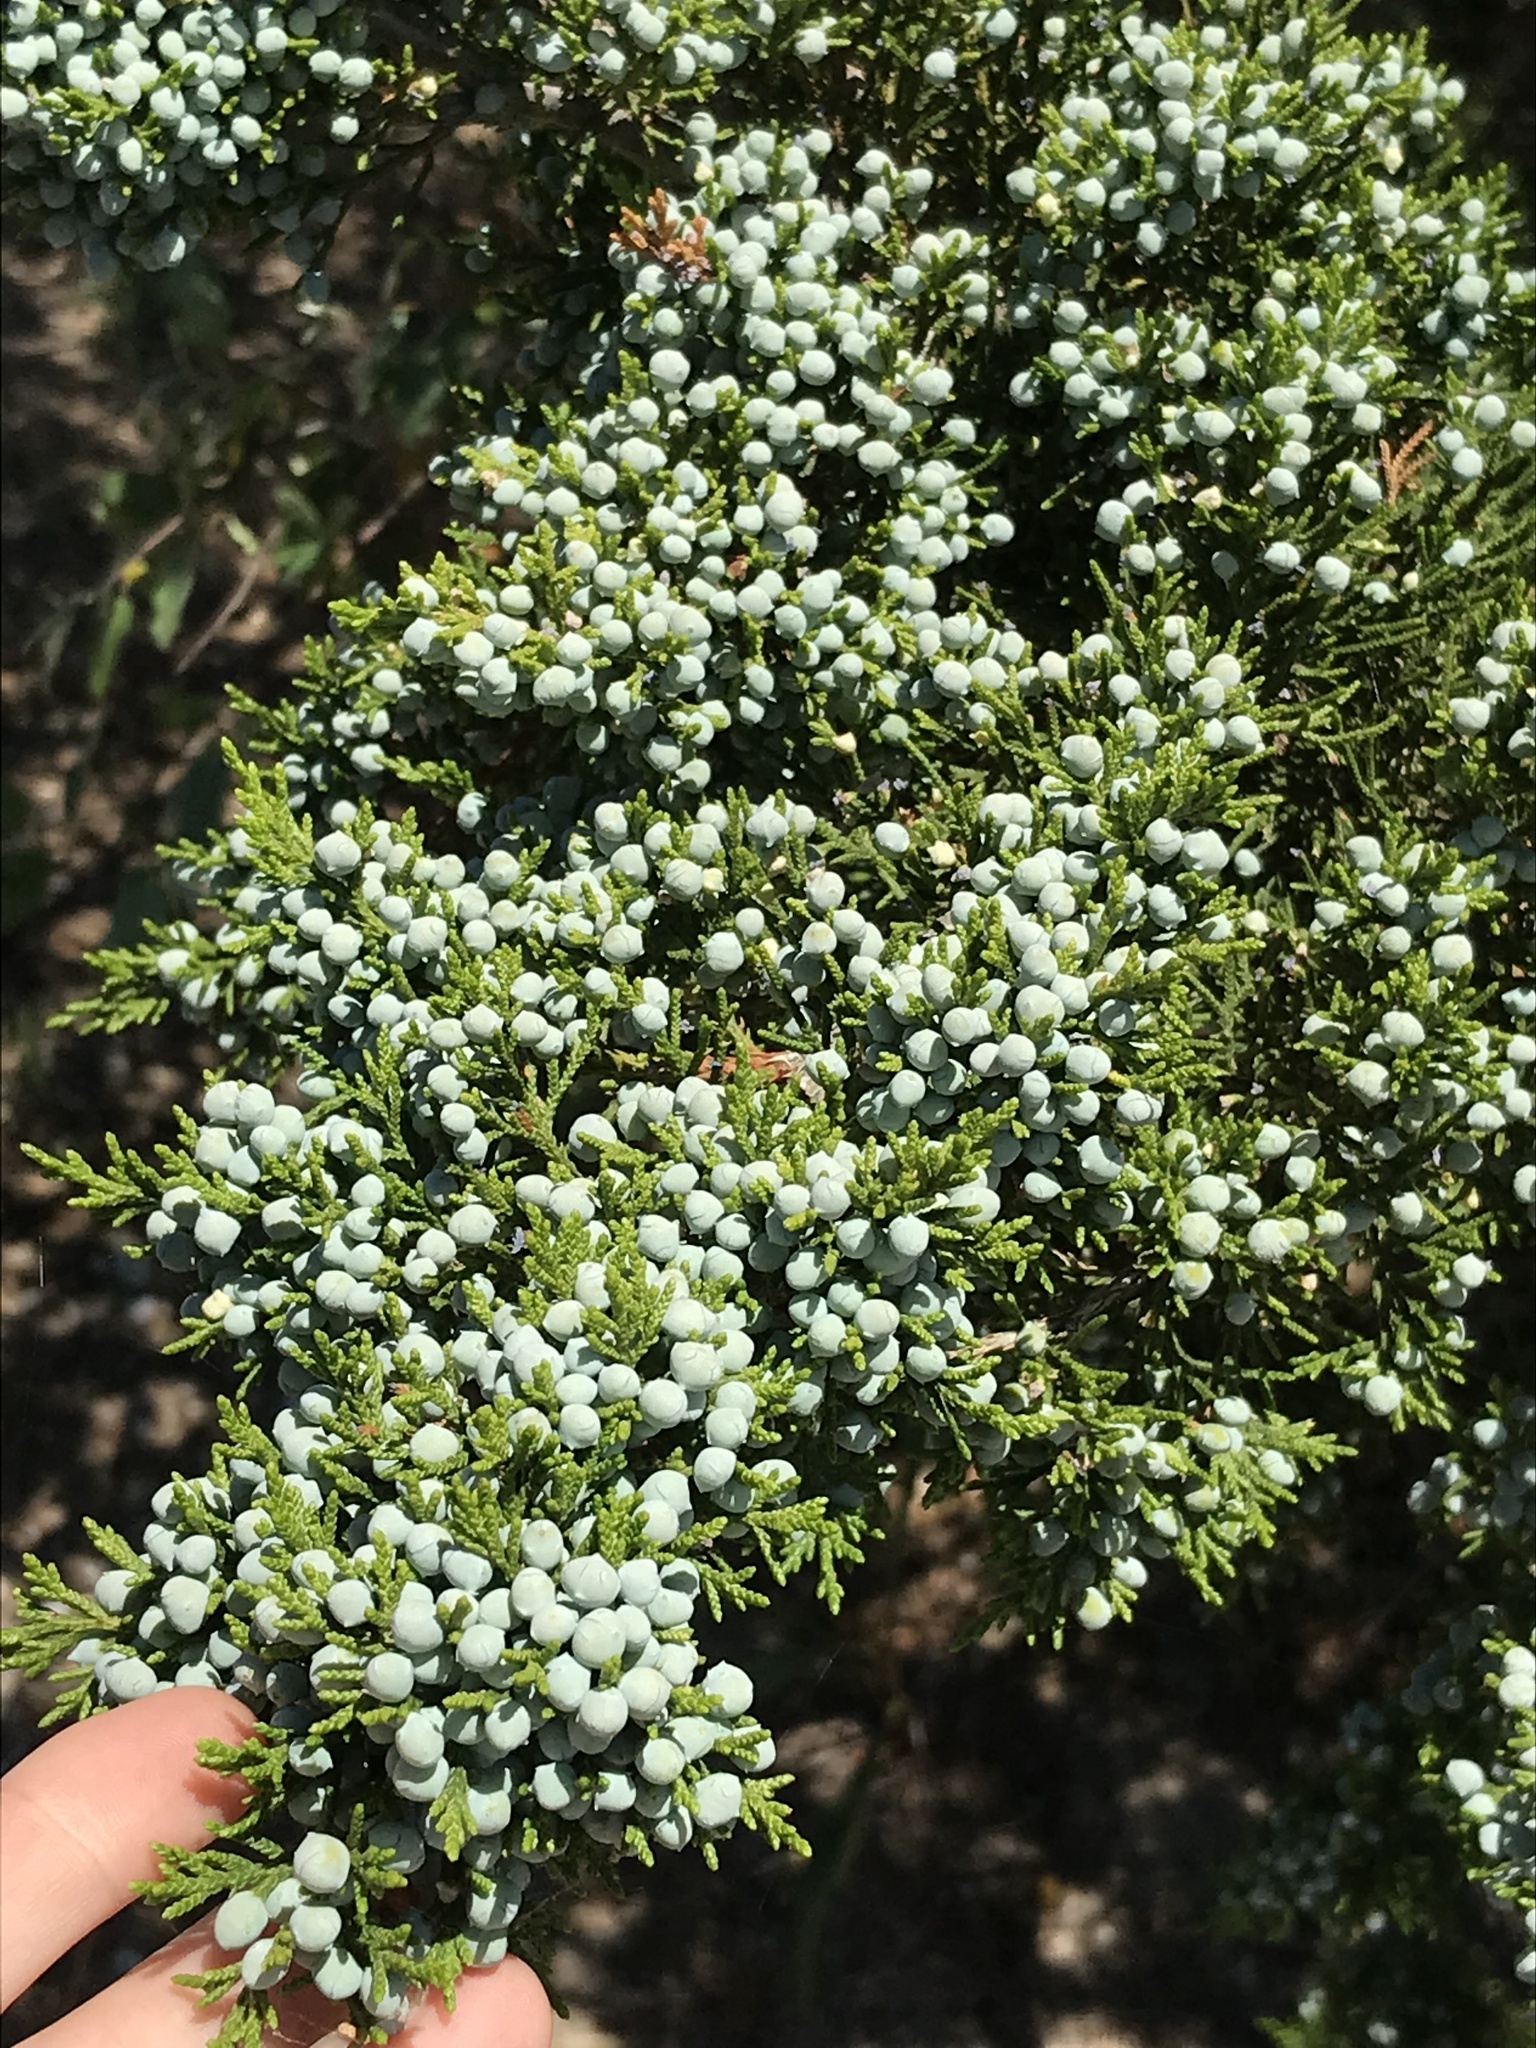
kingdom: Plantae
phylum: Tracheophyta
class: Pinopsida
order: Pinales
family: Cupressaceae
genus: Juniperus
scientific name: Juniperus virginiana
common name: Red juniper
